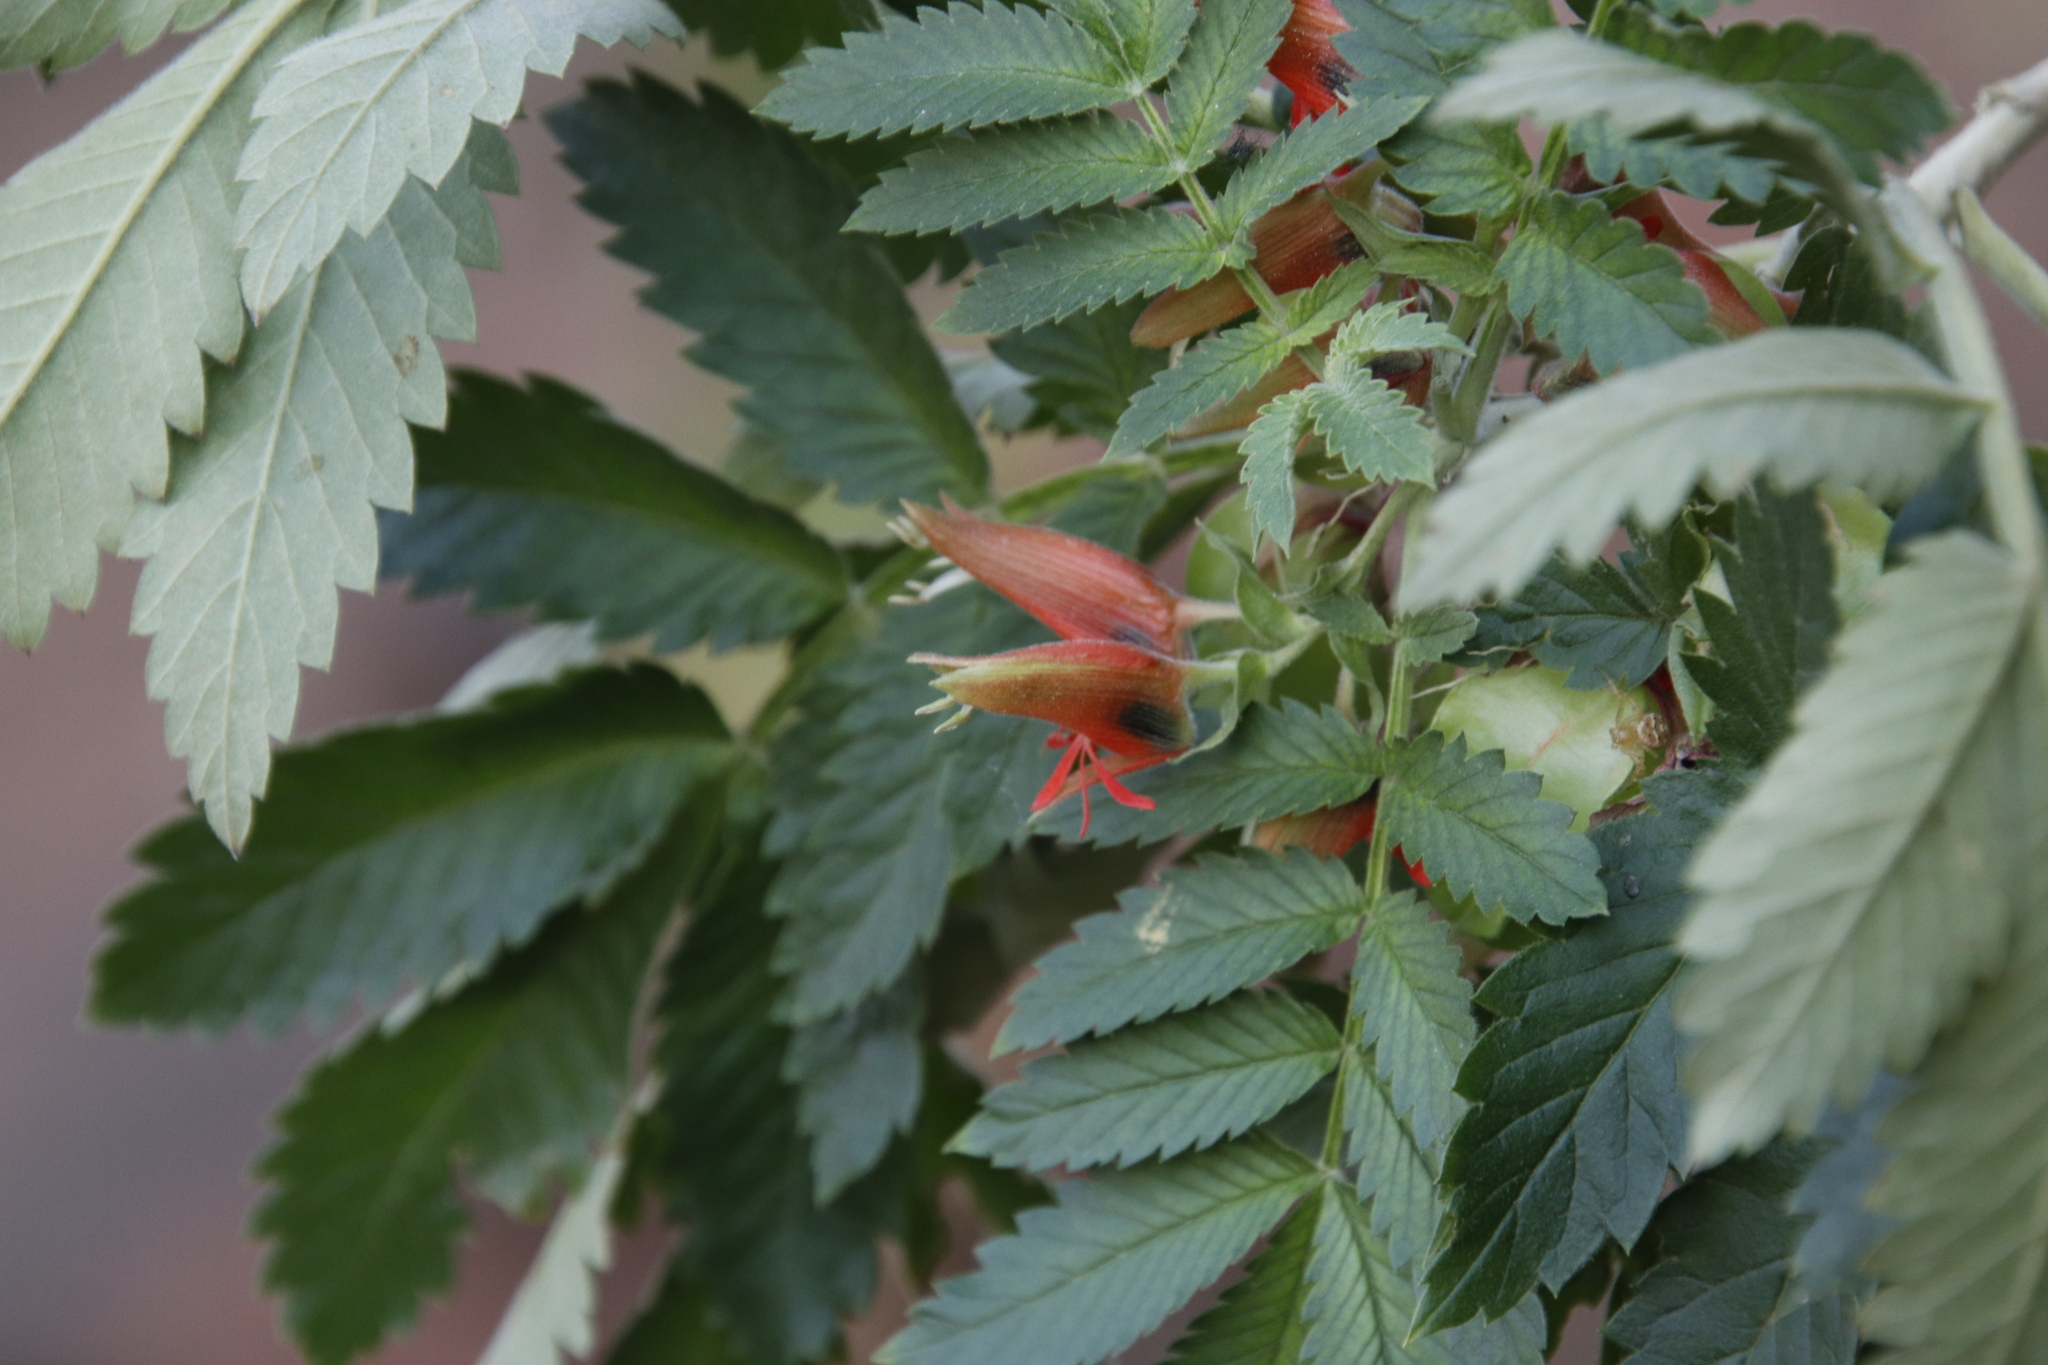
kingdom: Plantae
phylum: Tracheophyta
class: Magnoliopsida
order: Geraniales
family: Melianthaceae
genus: Melianthus
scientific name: Melianthus comosus
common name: Touch-me-not
